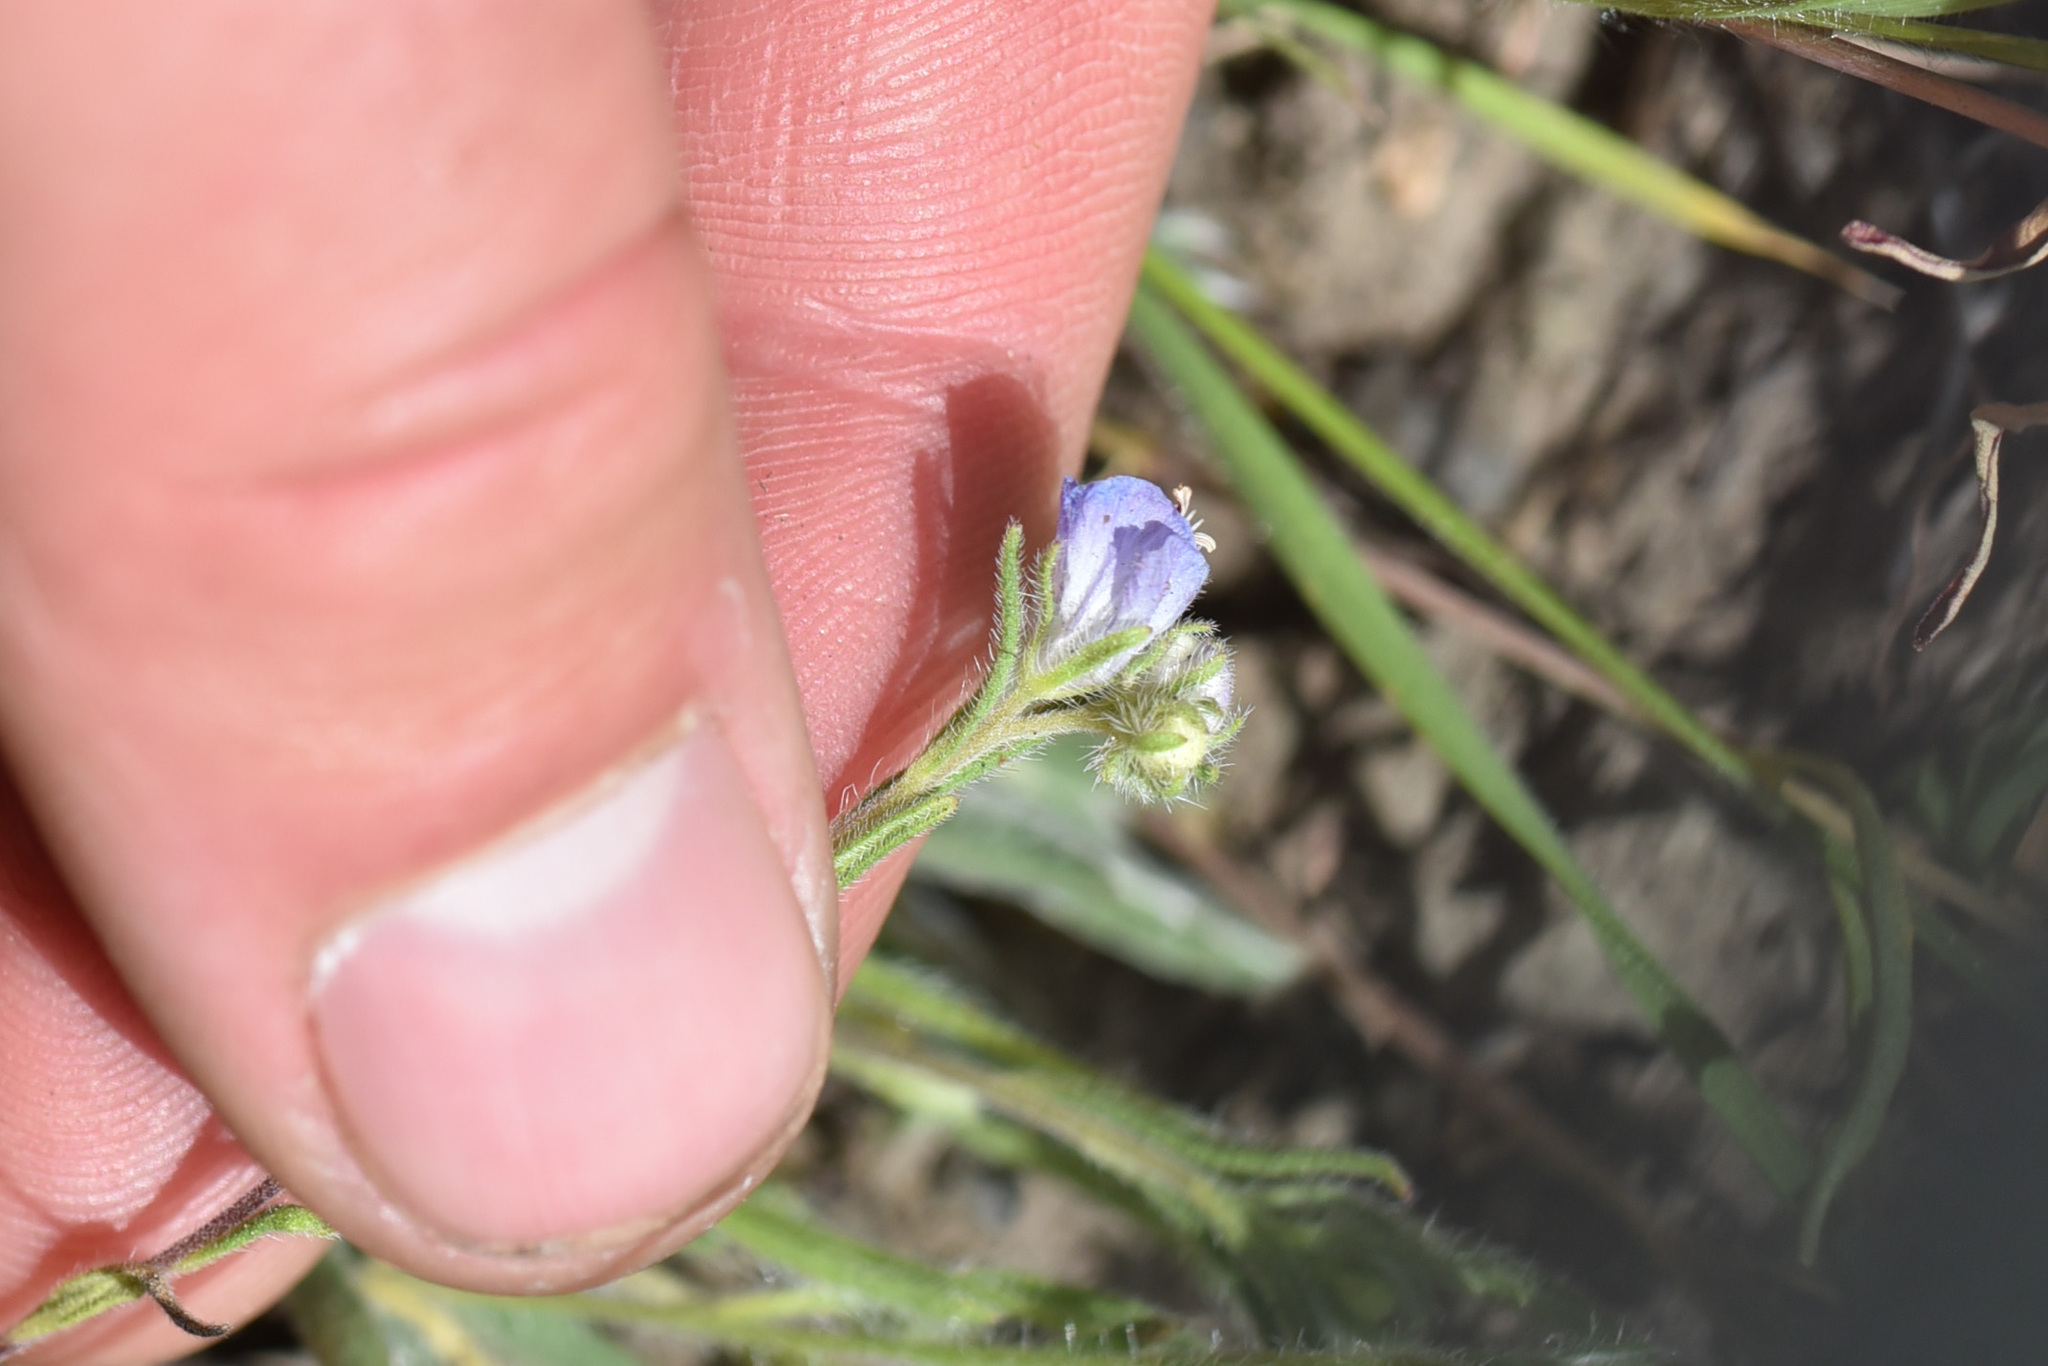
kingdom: Plantae
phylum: Tracheophyta
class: Magnoliopsida
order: Boraginales
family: Hydrophyllaceae
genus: Phacelia
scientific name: Phacelia linearis
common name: Linear-leaved phacelia
